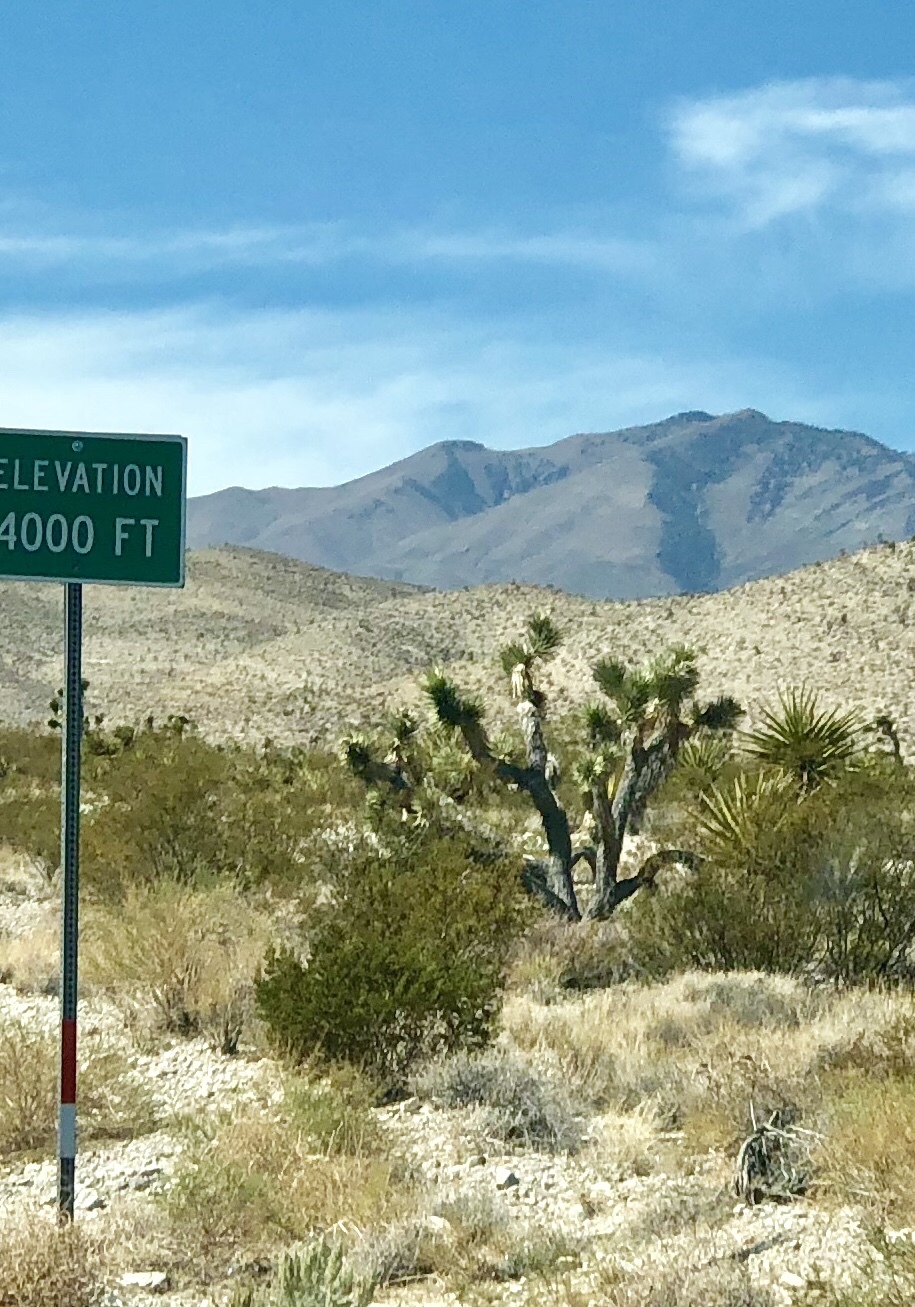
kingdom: Plantae
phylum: Tracheophyta
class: Liliopsida
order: Asparagales
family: Asparagaceae
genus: Yucca
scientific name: Yucca brevifolia
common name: Joshua tree
